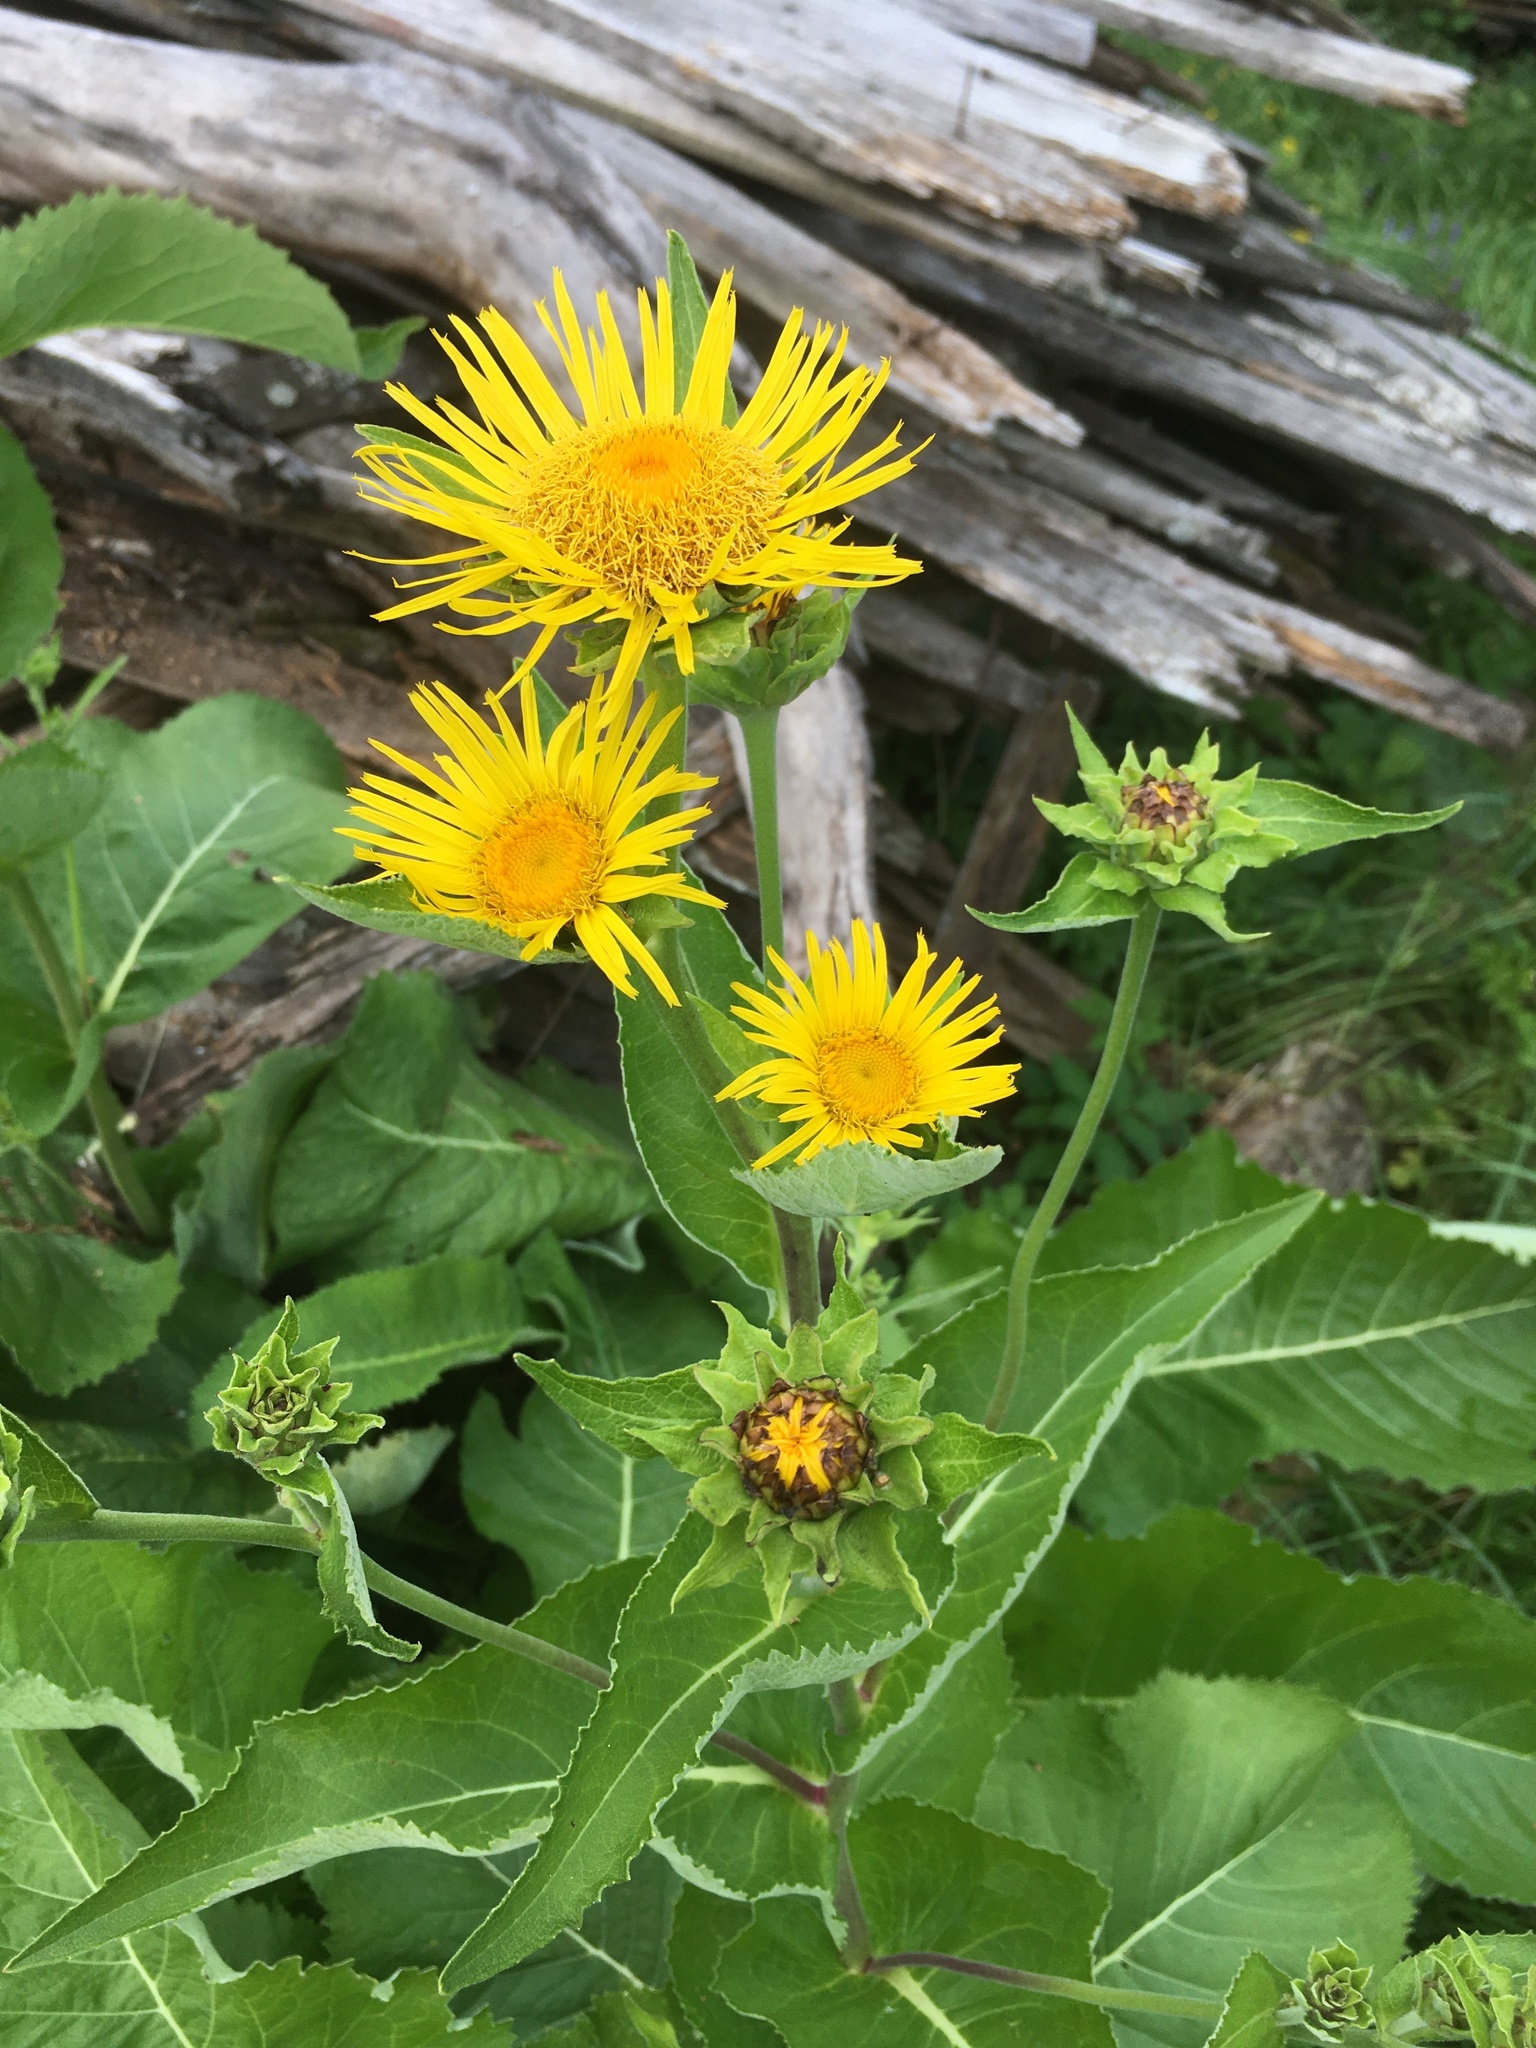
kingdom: Plantae
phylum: Tracheophyta
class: Magnoliopsida
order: Asterales
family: Asteraceae
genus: Inula
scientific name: Inula helenium
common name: Elecampane
